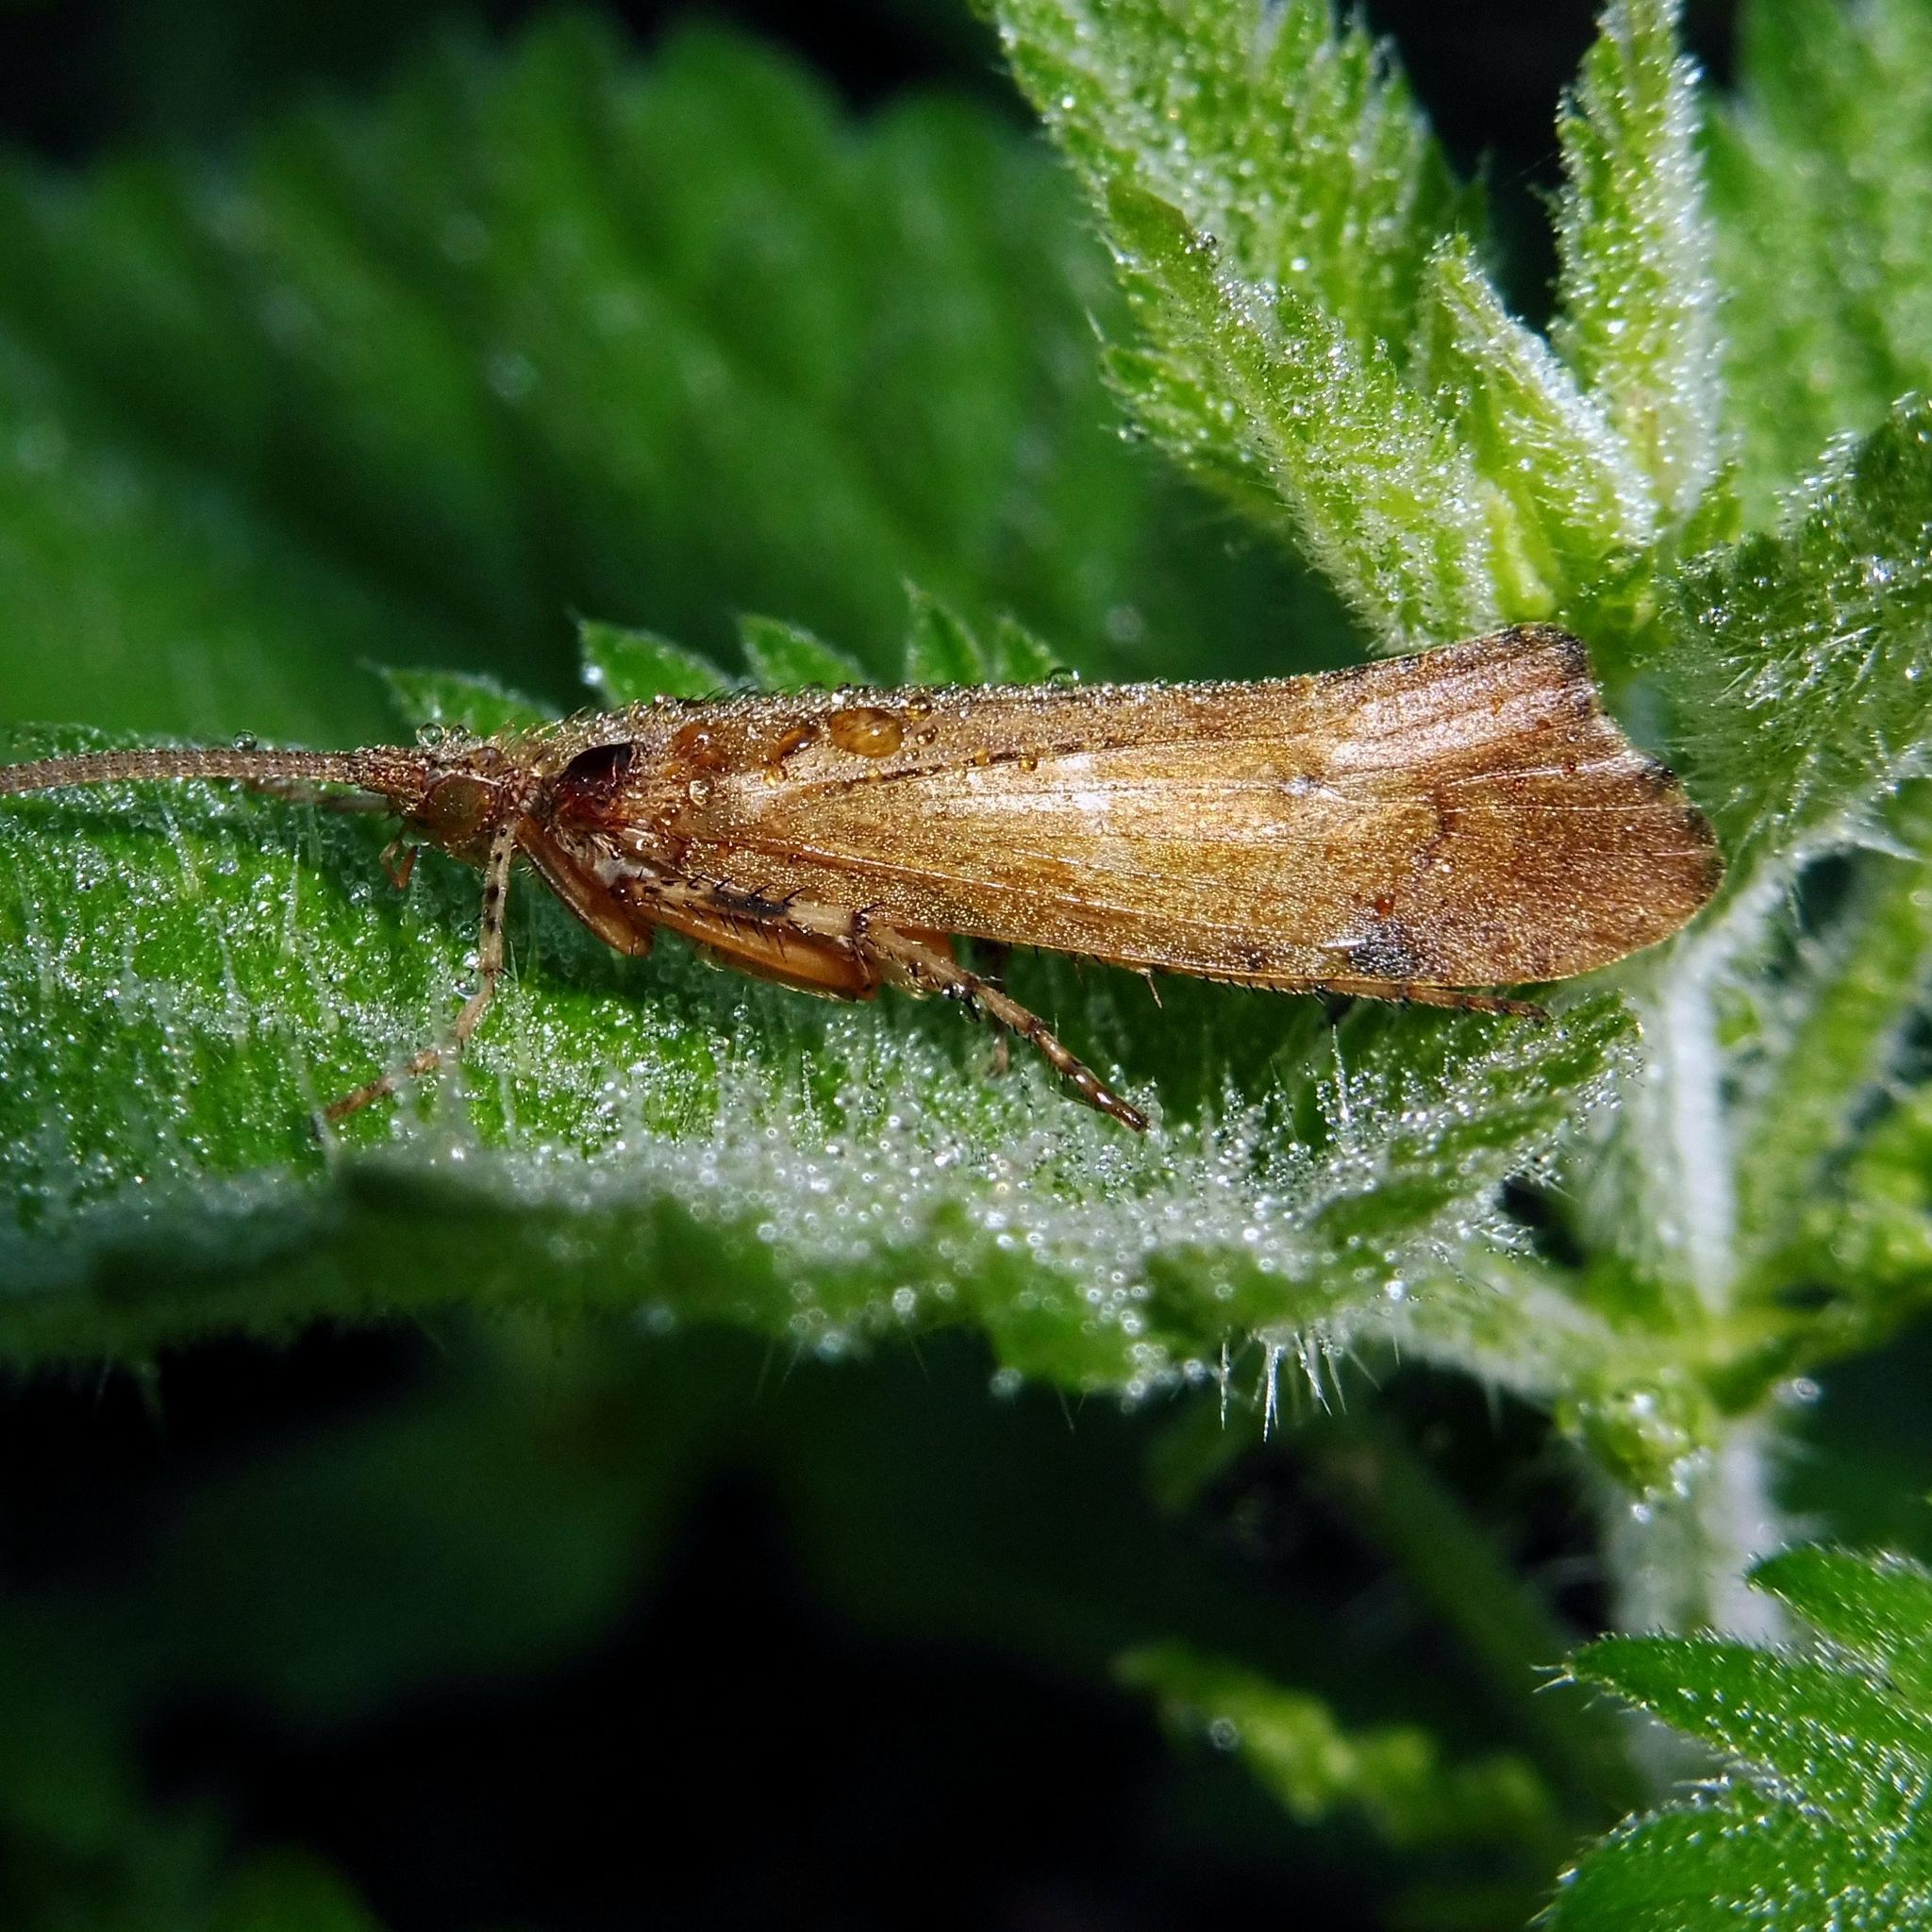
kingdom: Animalia
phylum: Arthropoda
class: Insecta
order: Trichoptera
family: Limnephilidae
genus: Glyphotaelius
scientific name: Glyphotaelius pellucidus
